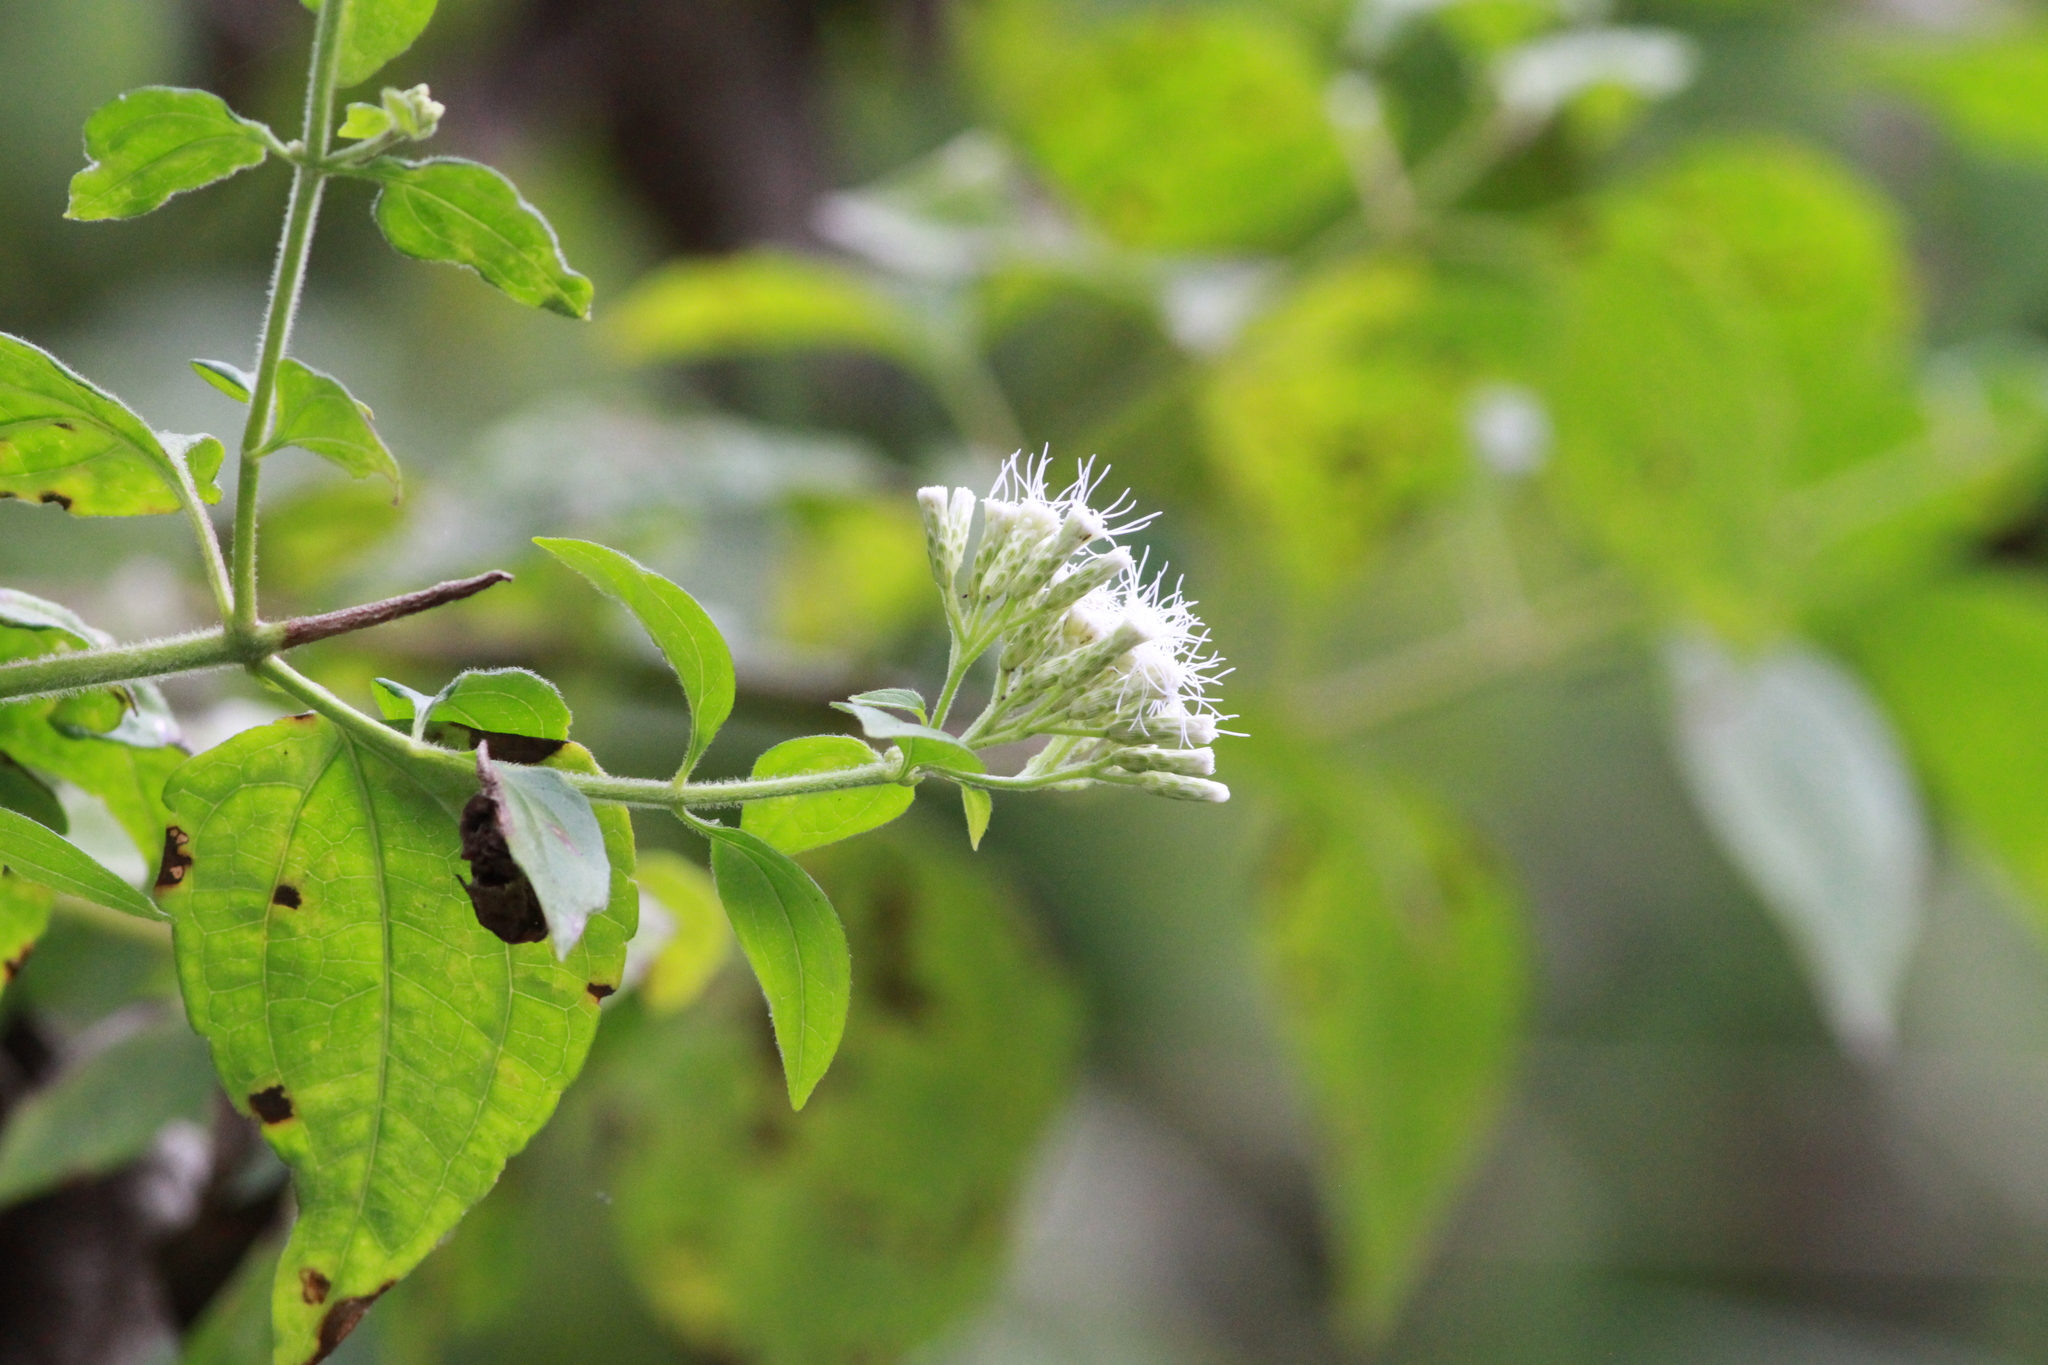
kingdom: Plantae
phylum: Tracheophyta
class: Magnoliopsida
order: Asterales
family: Asteraceae
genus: Chromolaena
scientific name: Chromolaena odorata
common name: Siamweed
